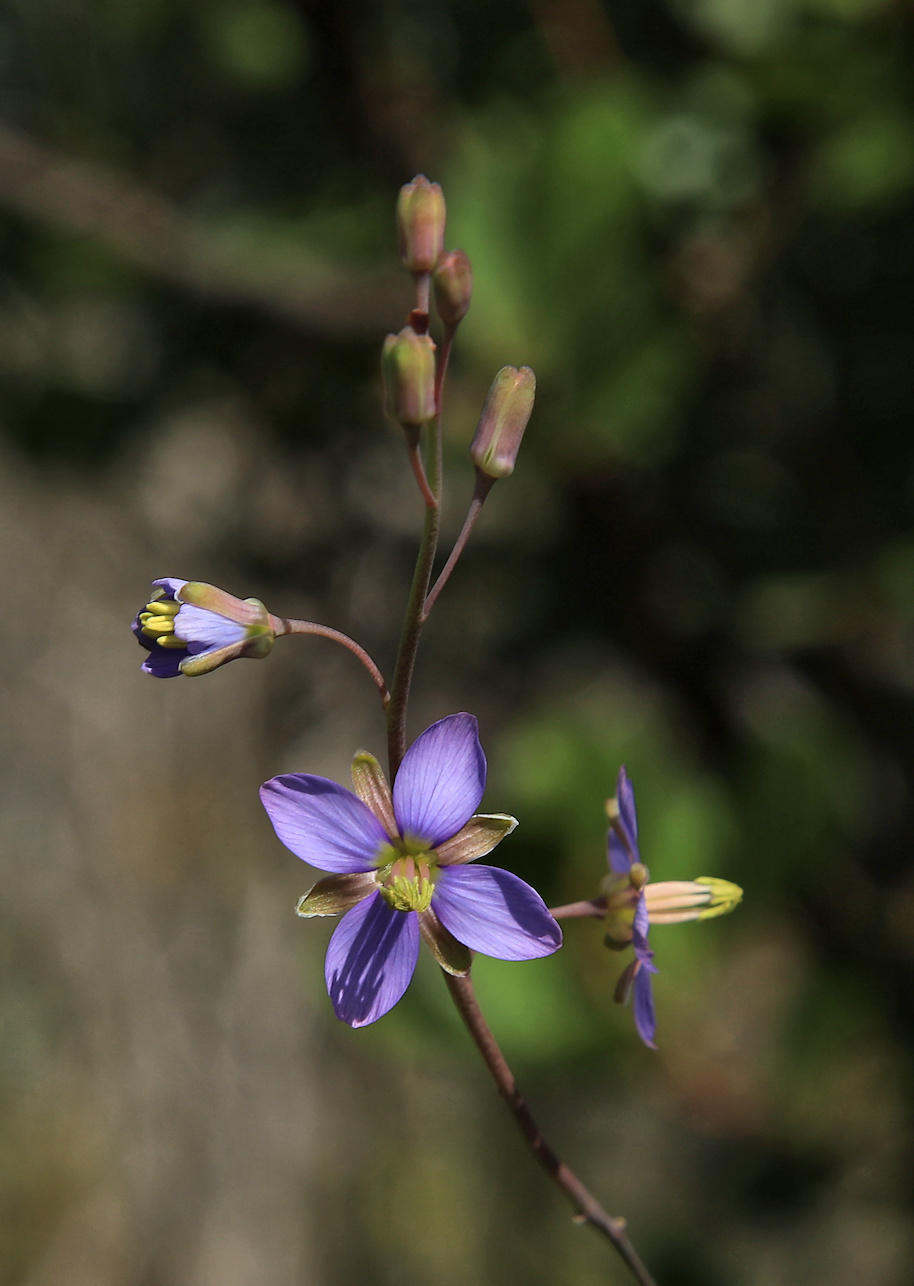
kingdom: Plantae
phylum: Tracheophyta
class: Magnoliopsida
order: Brassicales
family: Brassicaceae
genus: Heliophila
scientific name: Heliophila linearis
